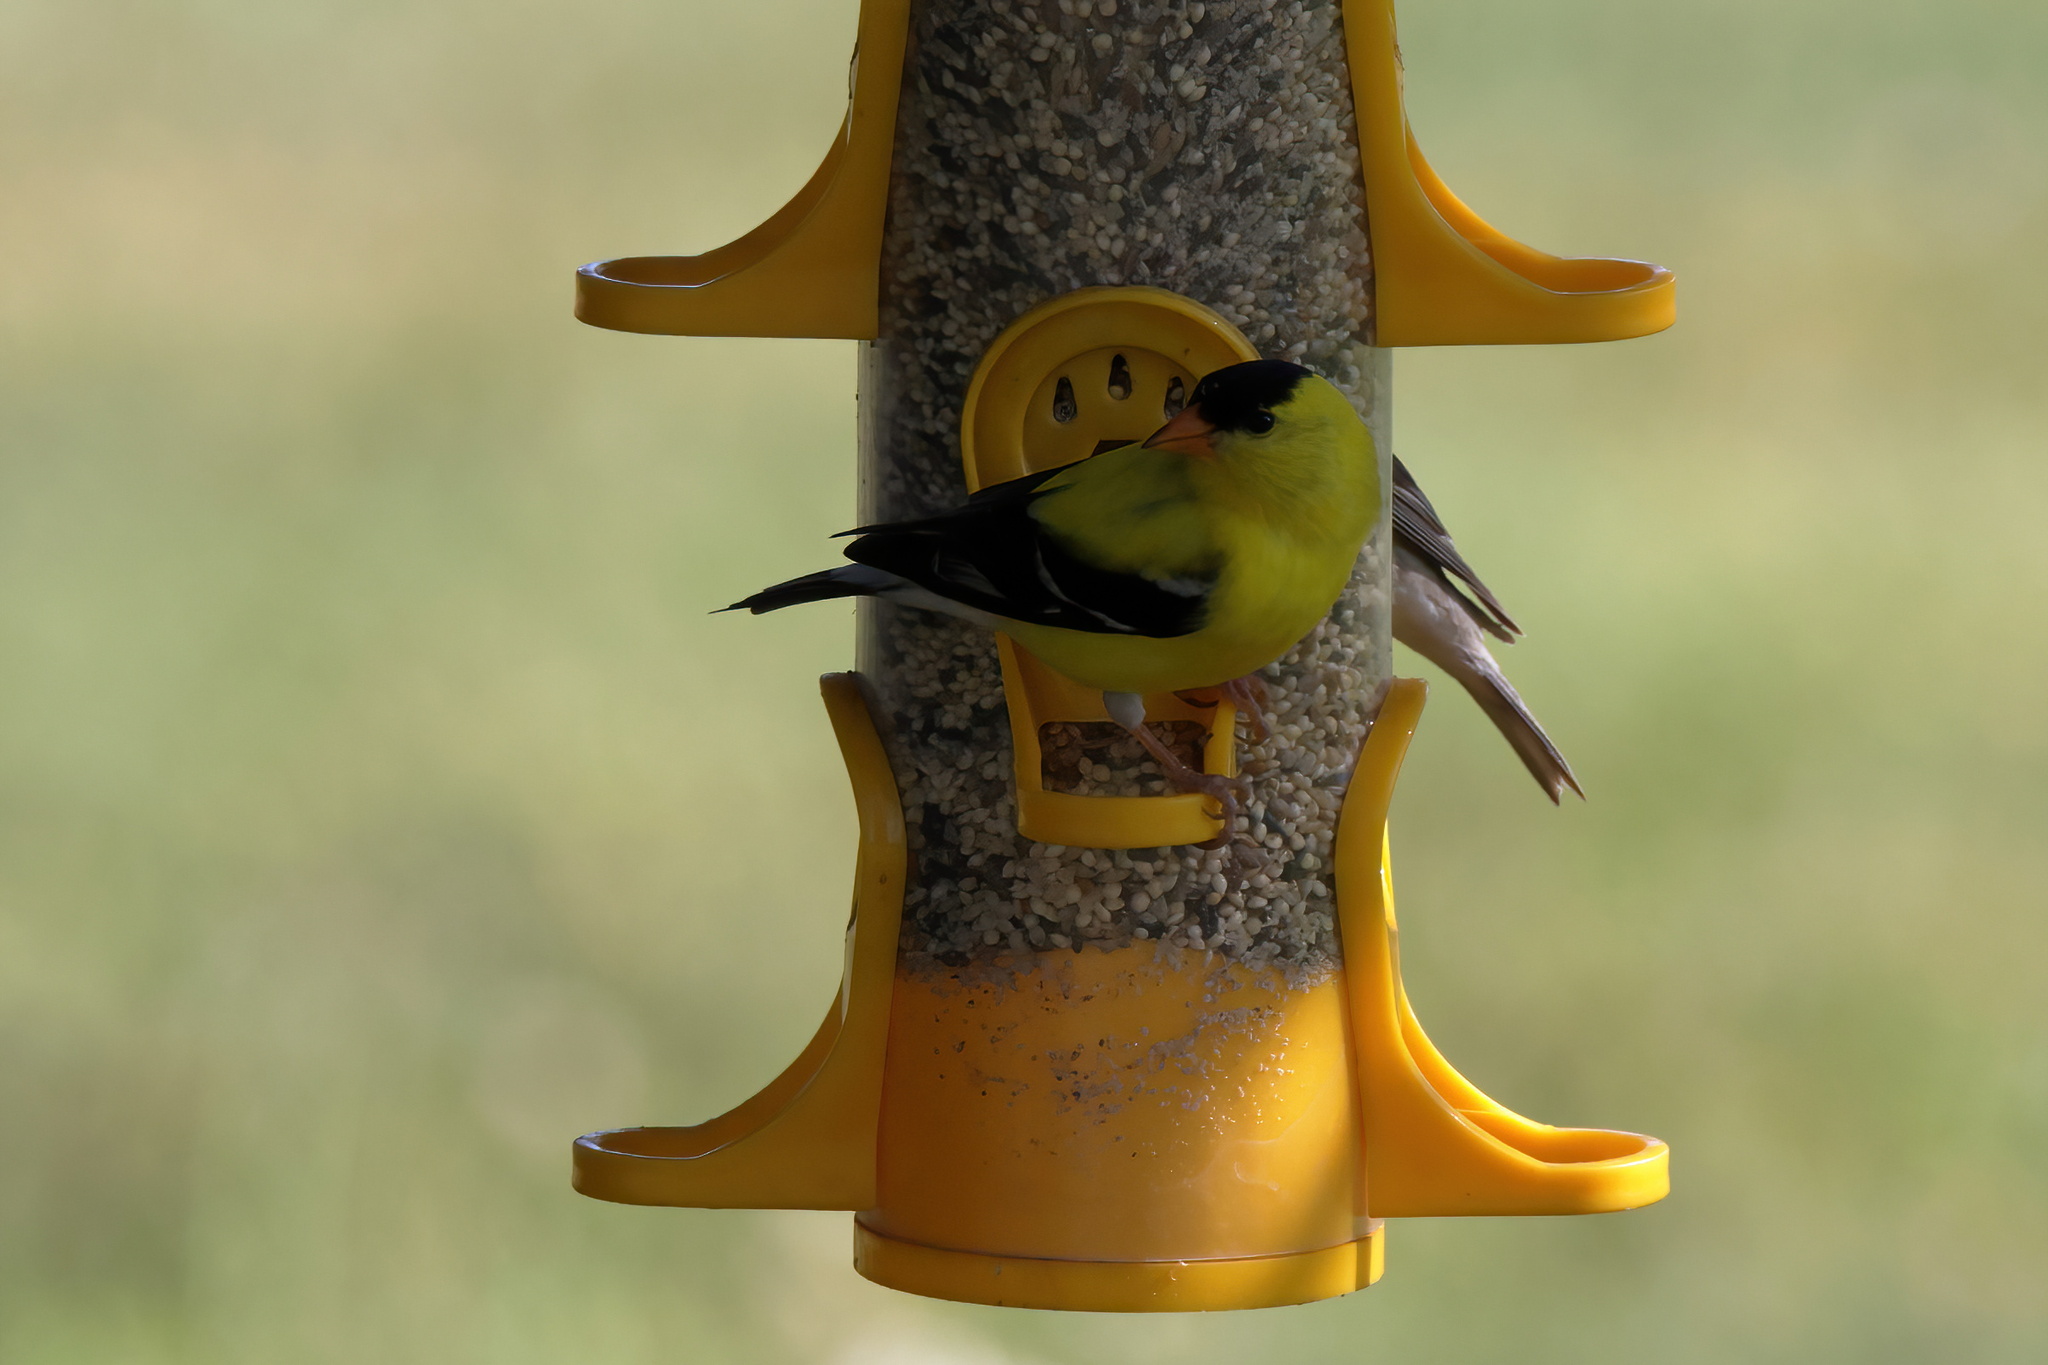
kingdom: Animalia
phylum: Chordata
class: Aves
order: Passeriformes
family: Fringillidae
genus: Spinus
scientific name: Spinus tristis
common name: American goldfinch
